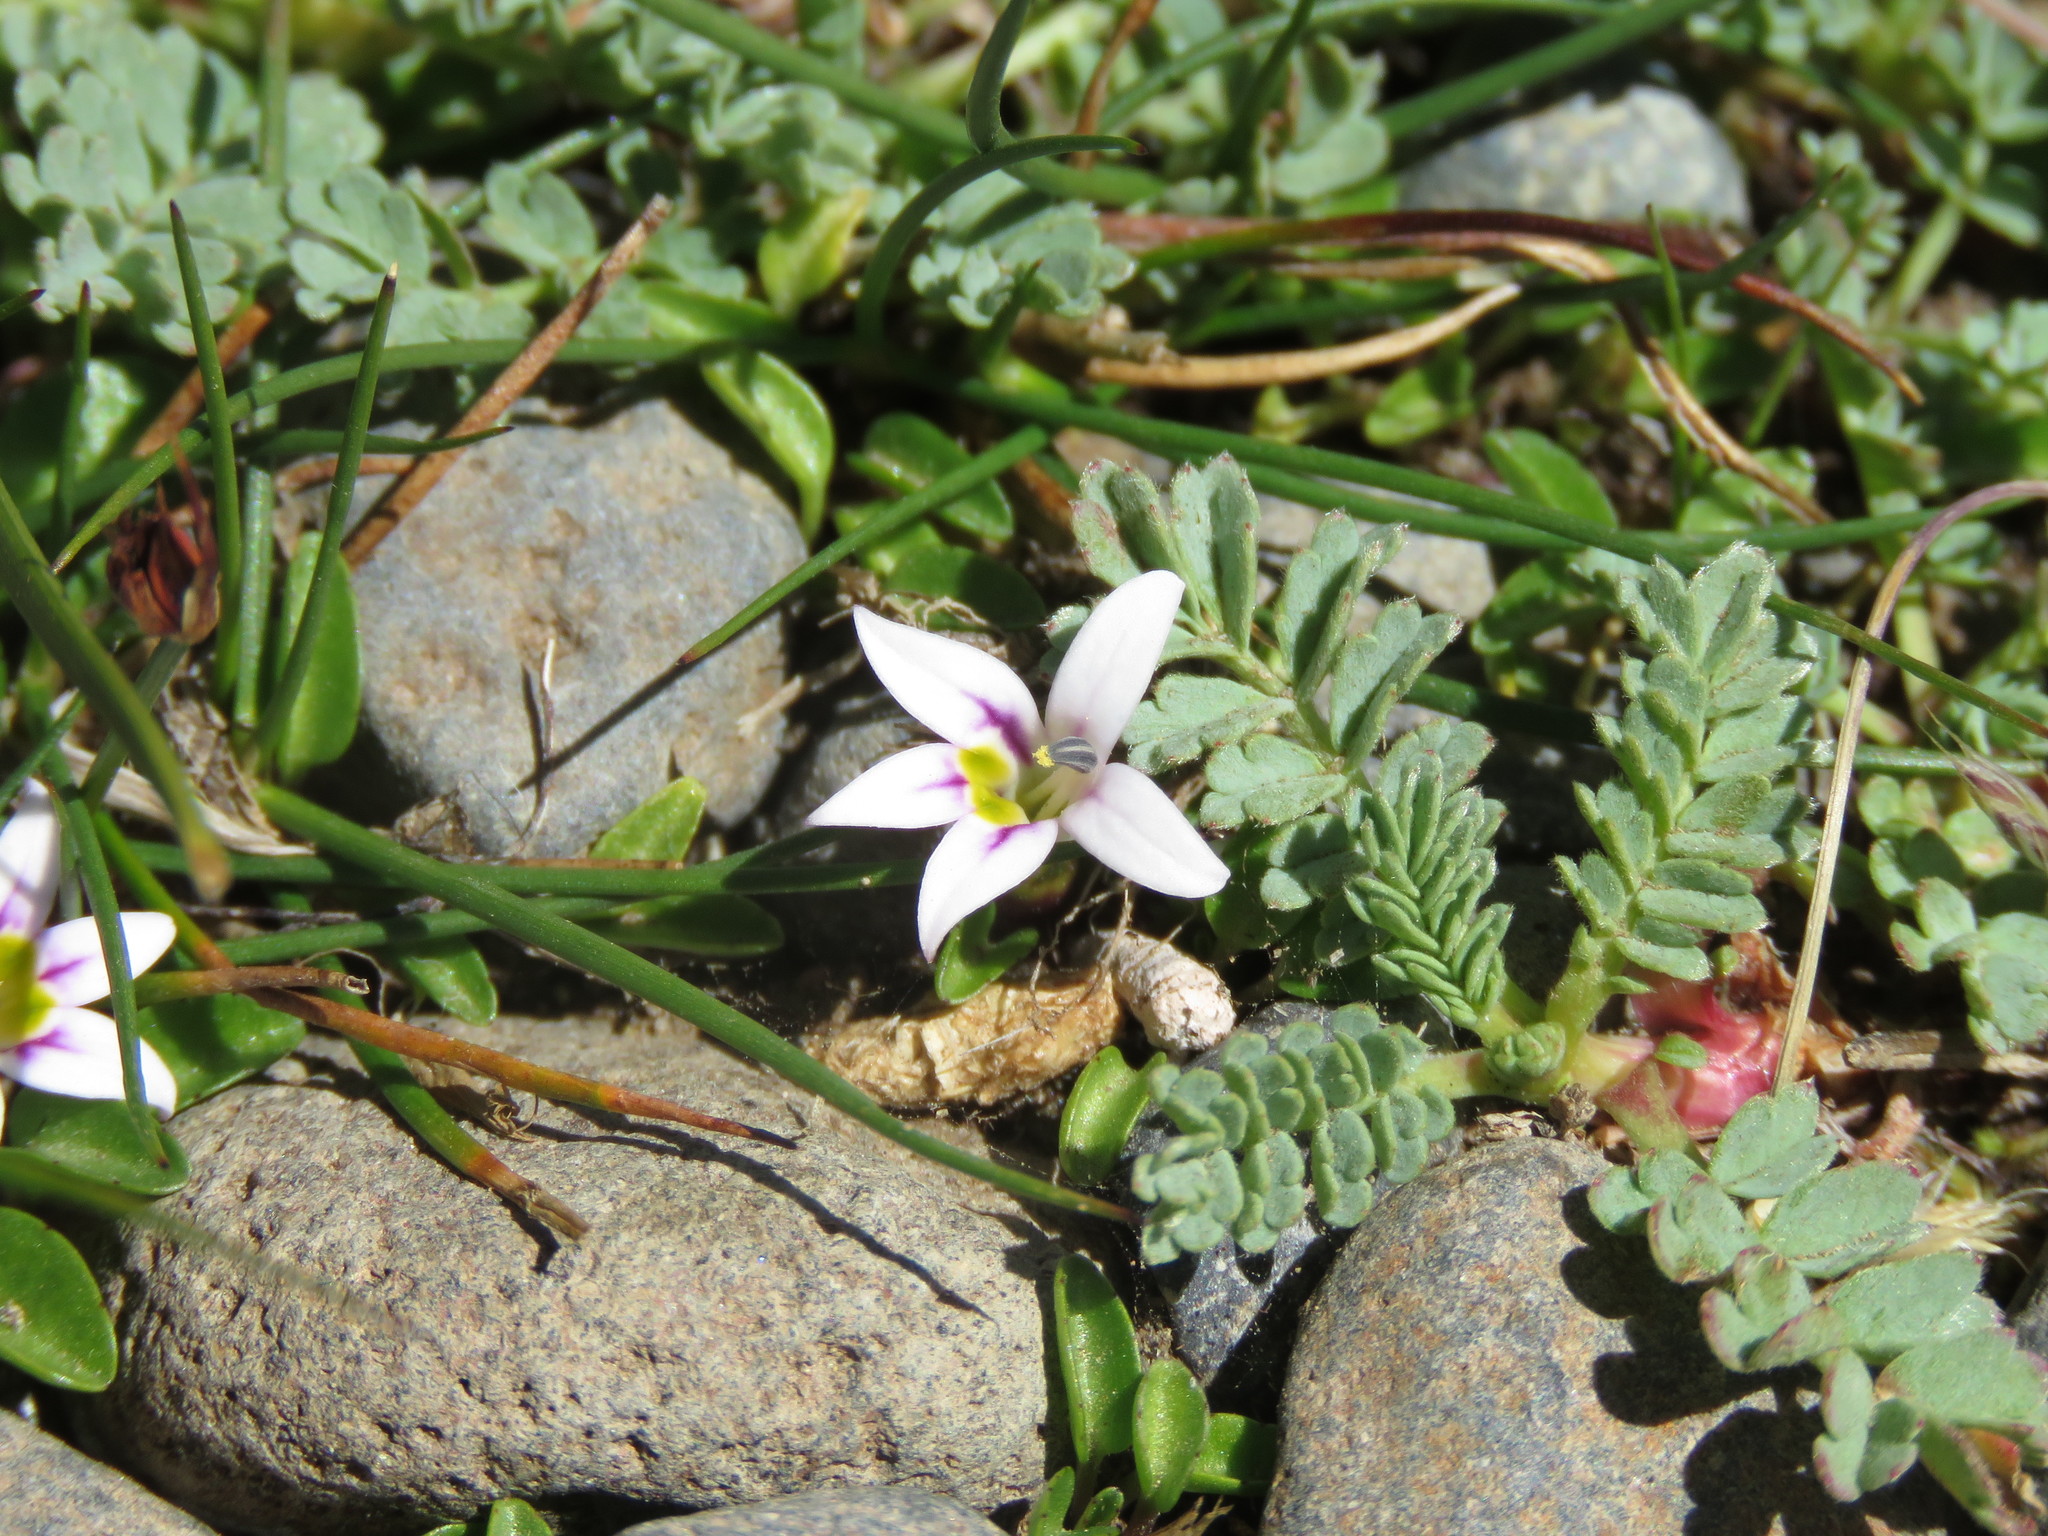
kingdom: Plantae
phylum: Tracheophyta
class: Magnoliopsida
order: Asterales
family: Campanulaceae
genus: Lobelia
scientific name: Lobelia oligophylla
